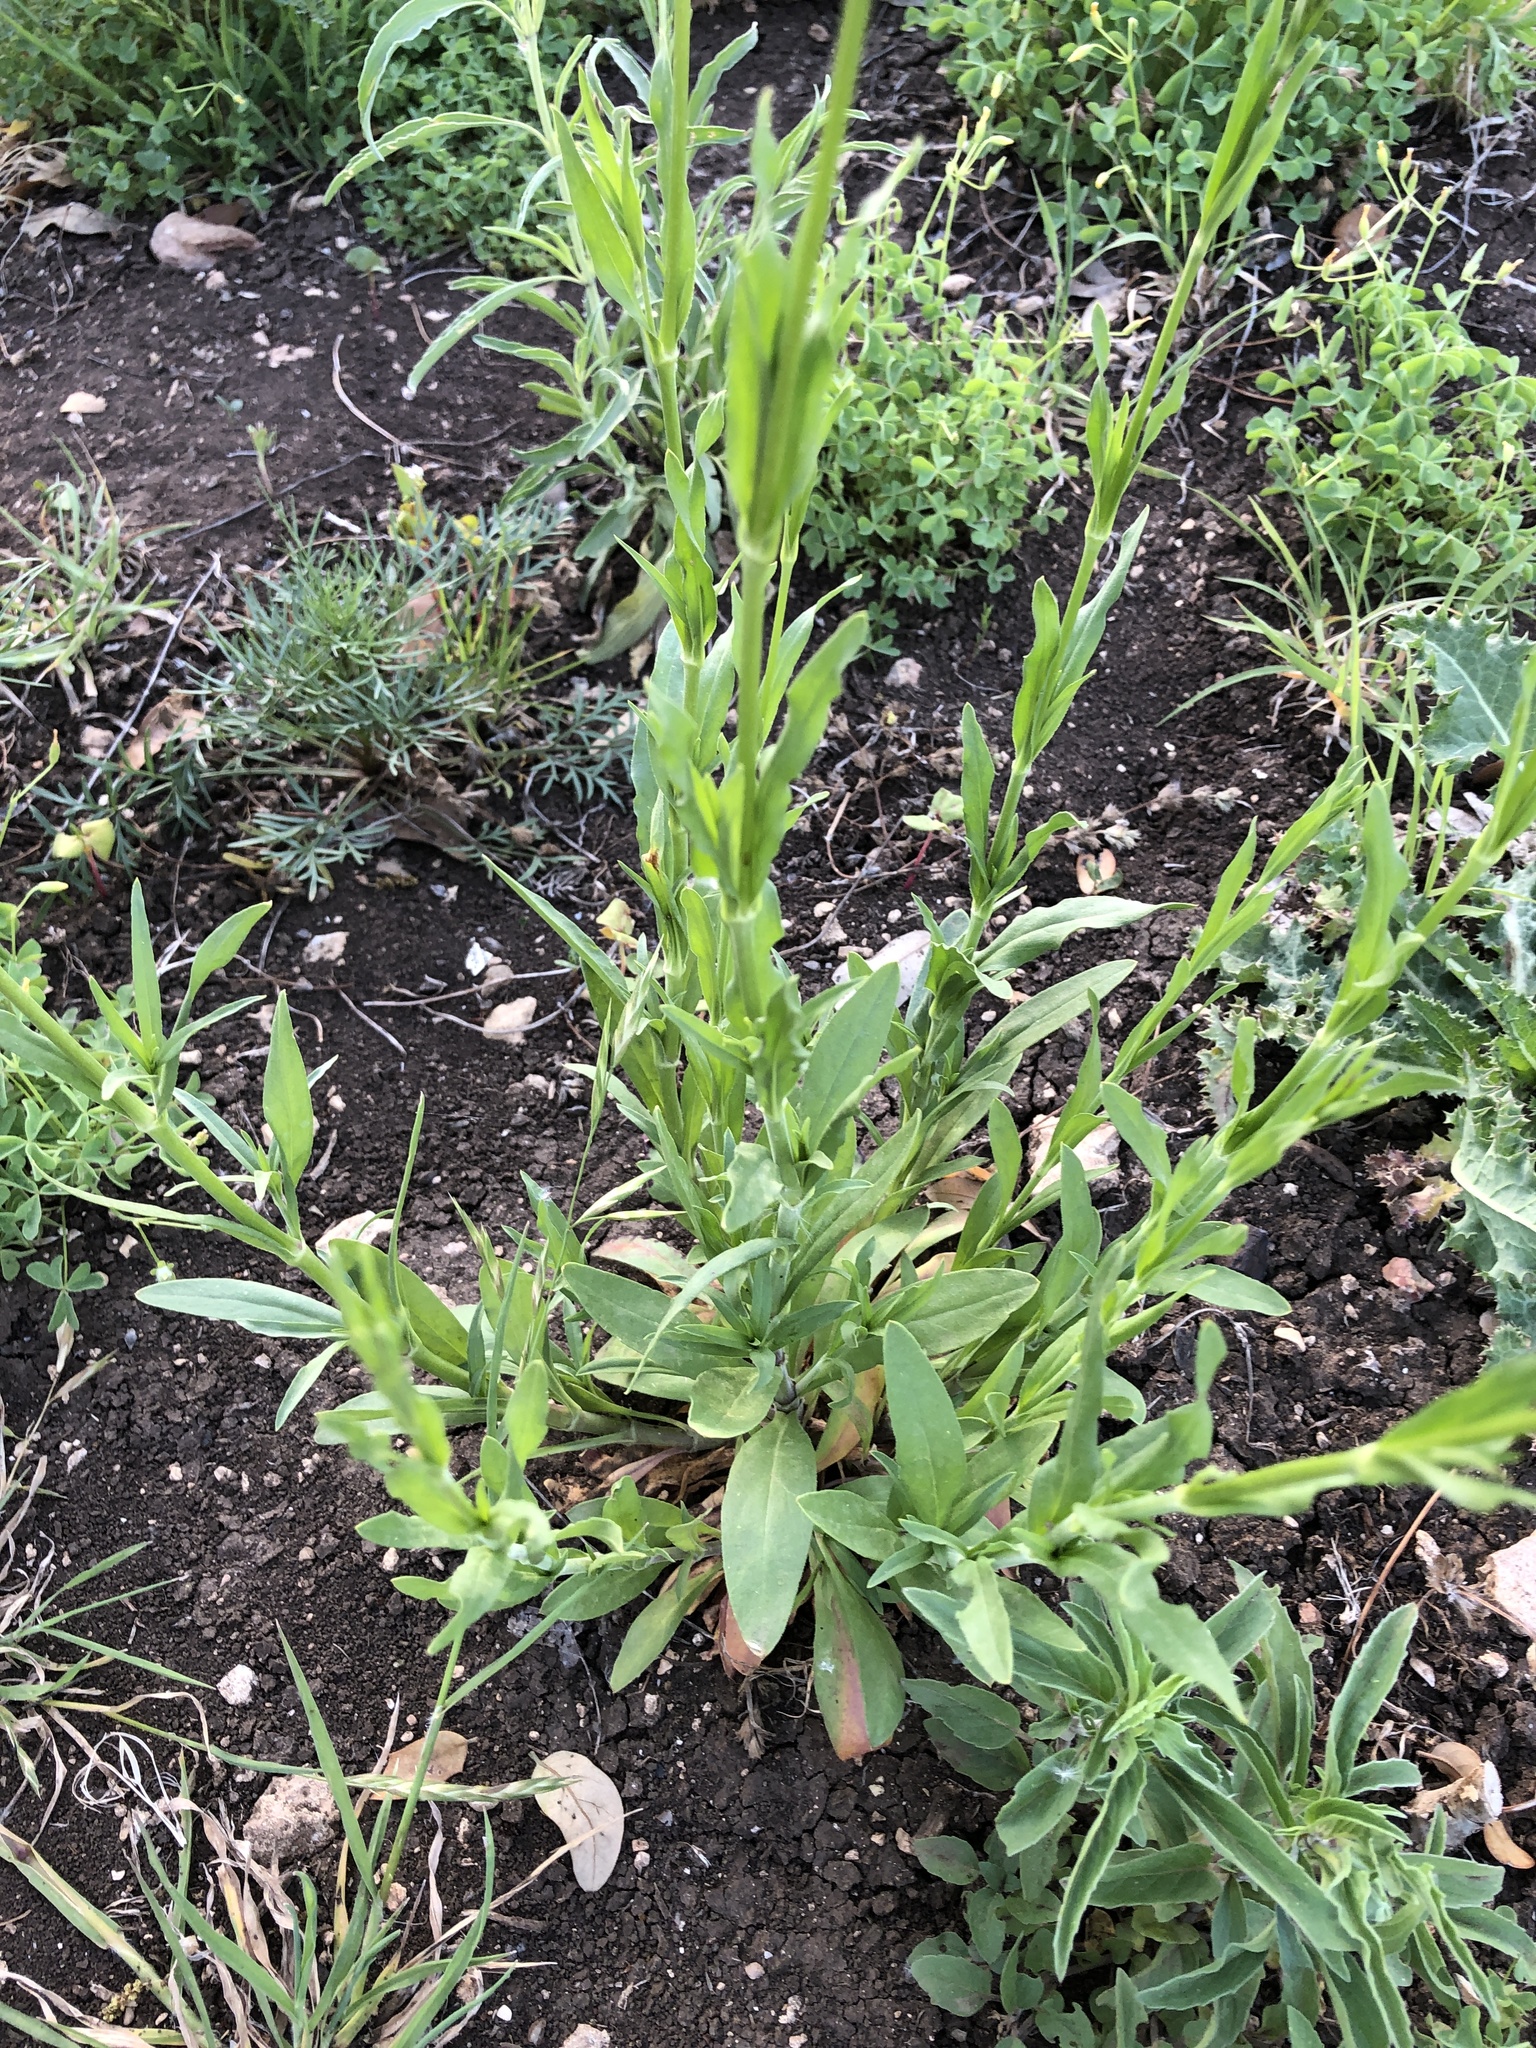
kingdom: Plantae
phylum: Tracheophyta
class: Magnoliopsida
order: Caryophyllales
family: Caryophyllaceae
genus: Silene
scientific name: Silene latifolia
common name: White campion
